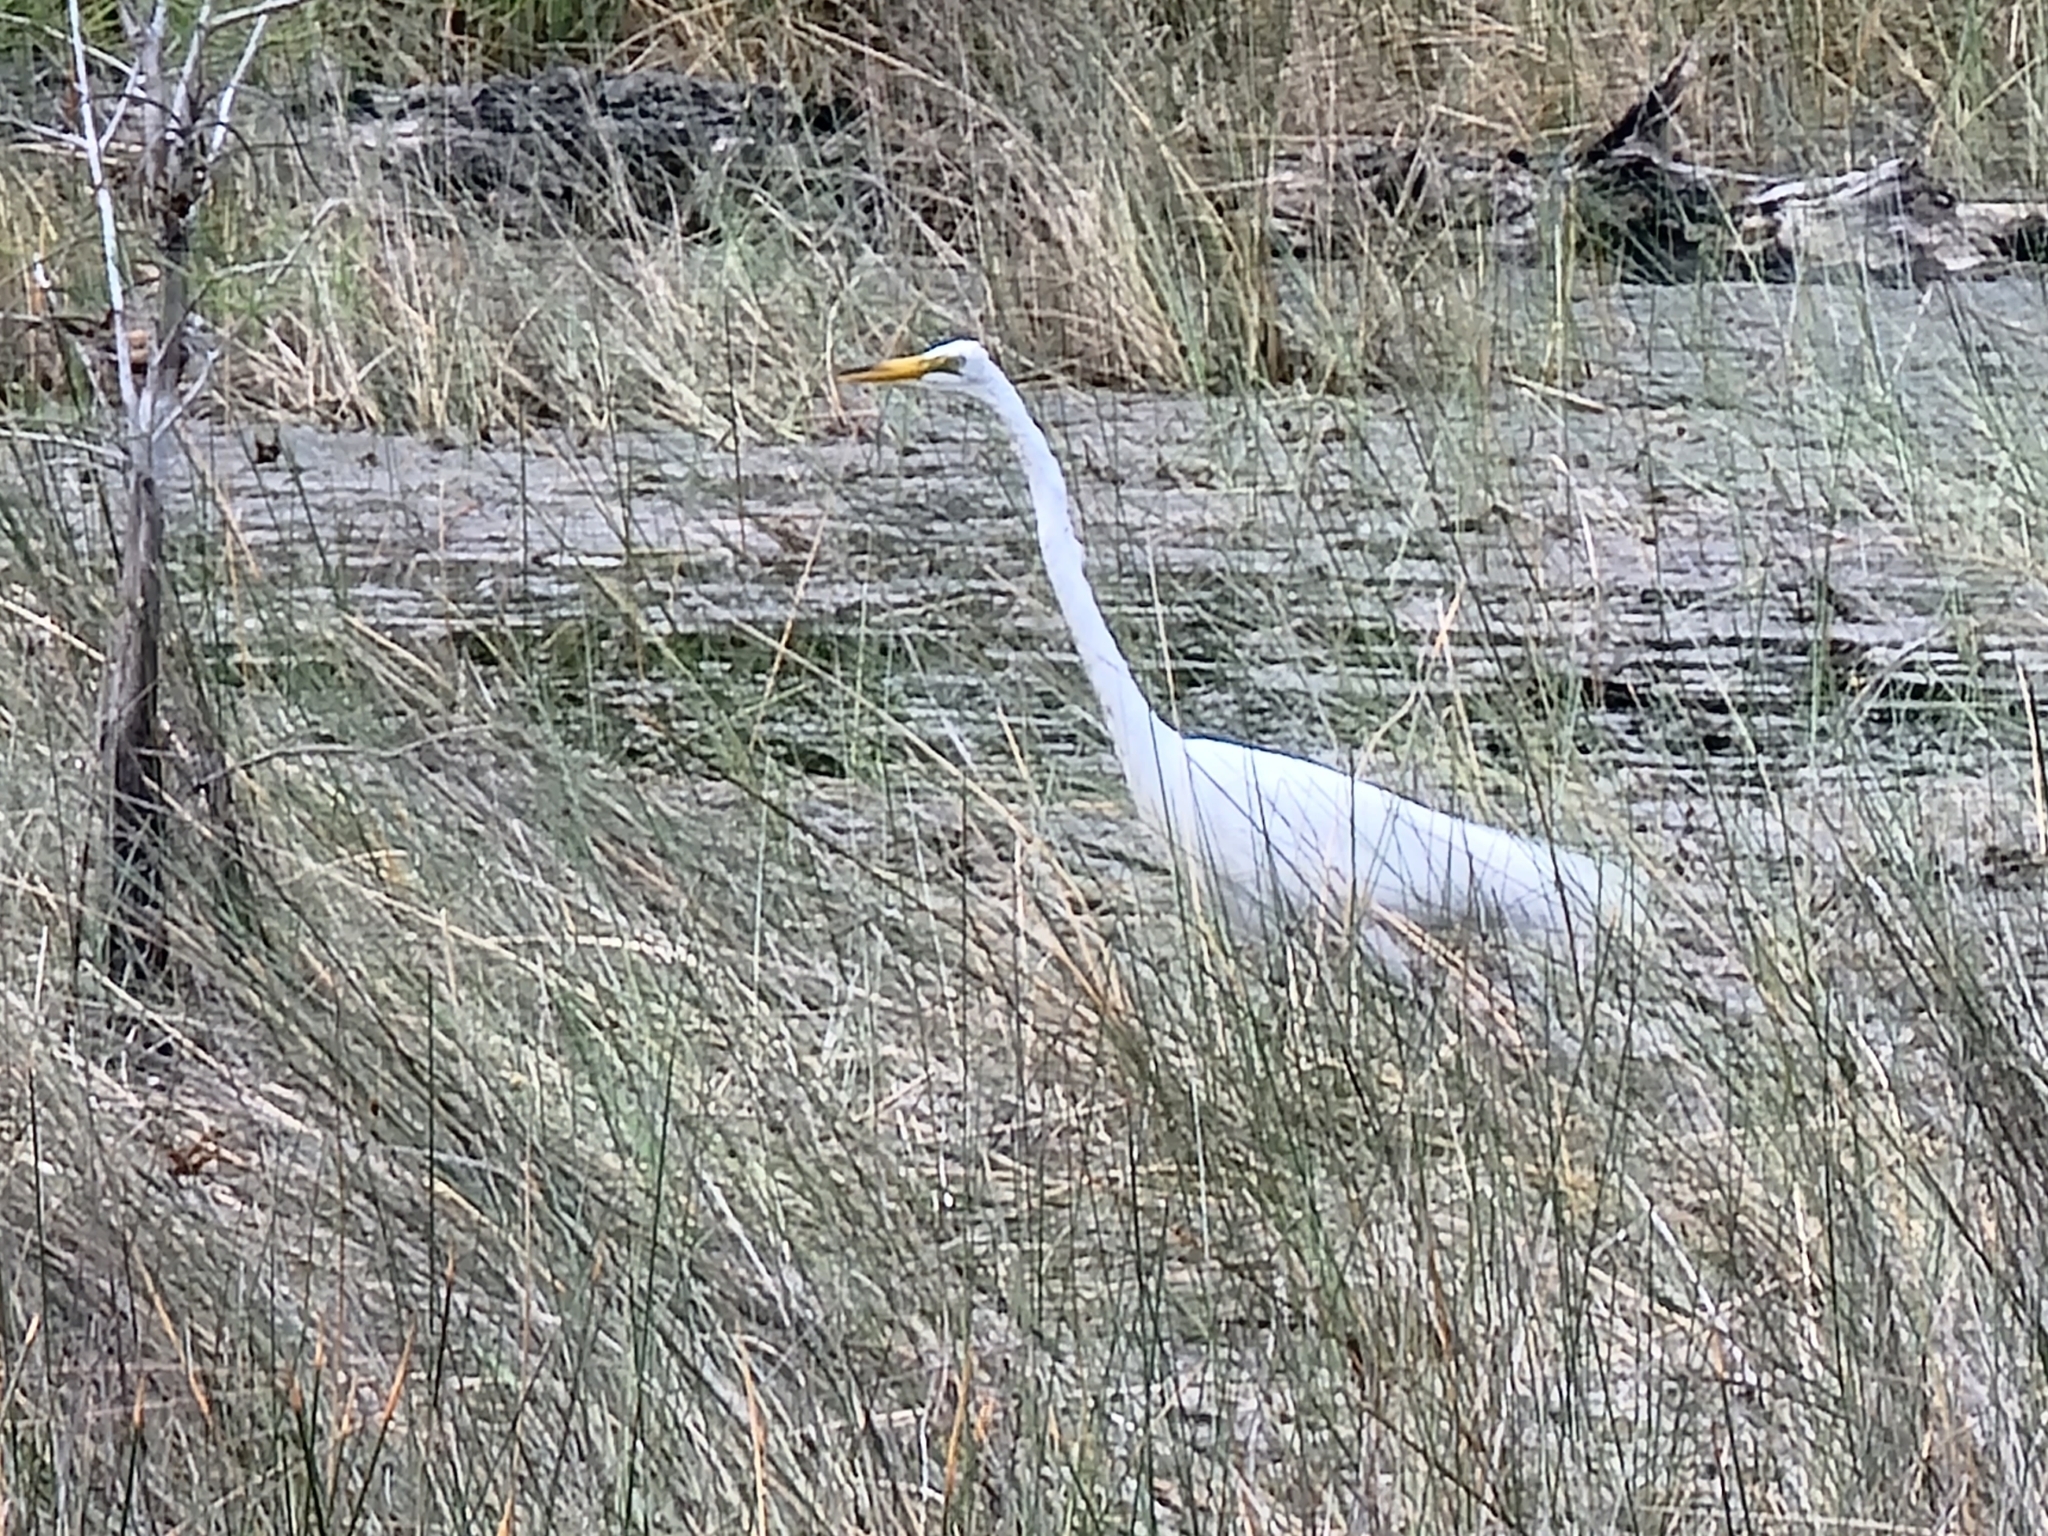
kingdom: Animalia
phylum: Chordata
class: Aves
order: Pelecaniformes
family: Ardeidae
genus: Ardea
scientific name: Ardea alba
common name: Great egret
